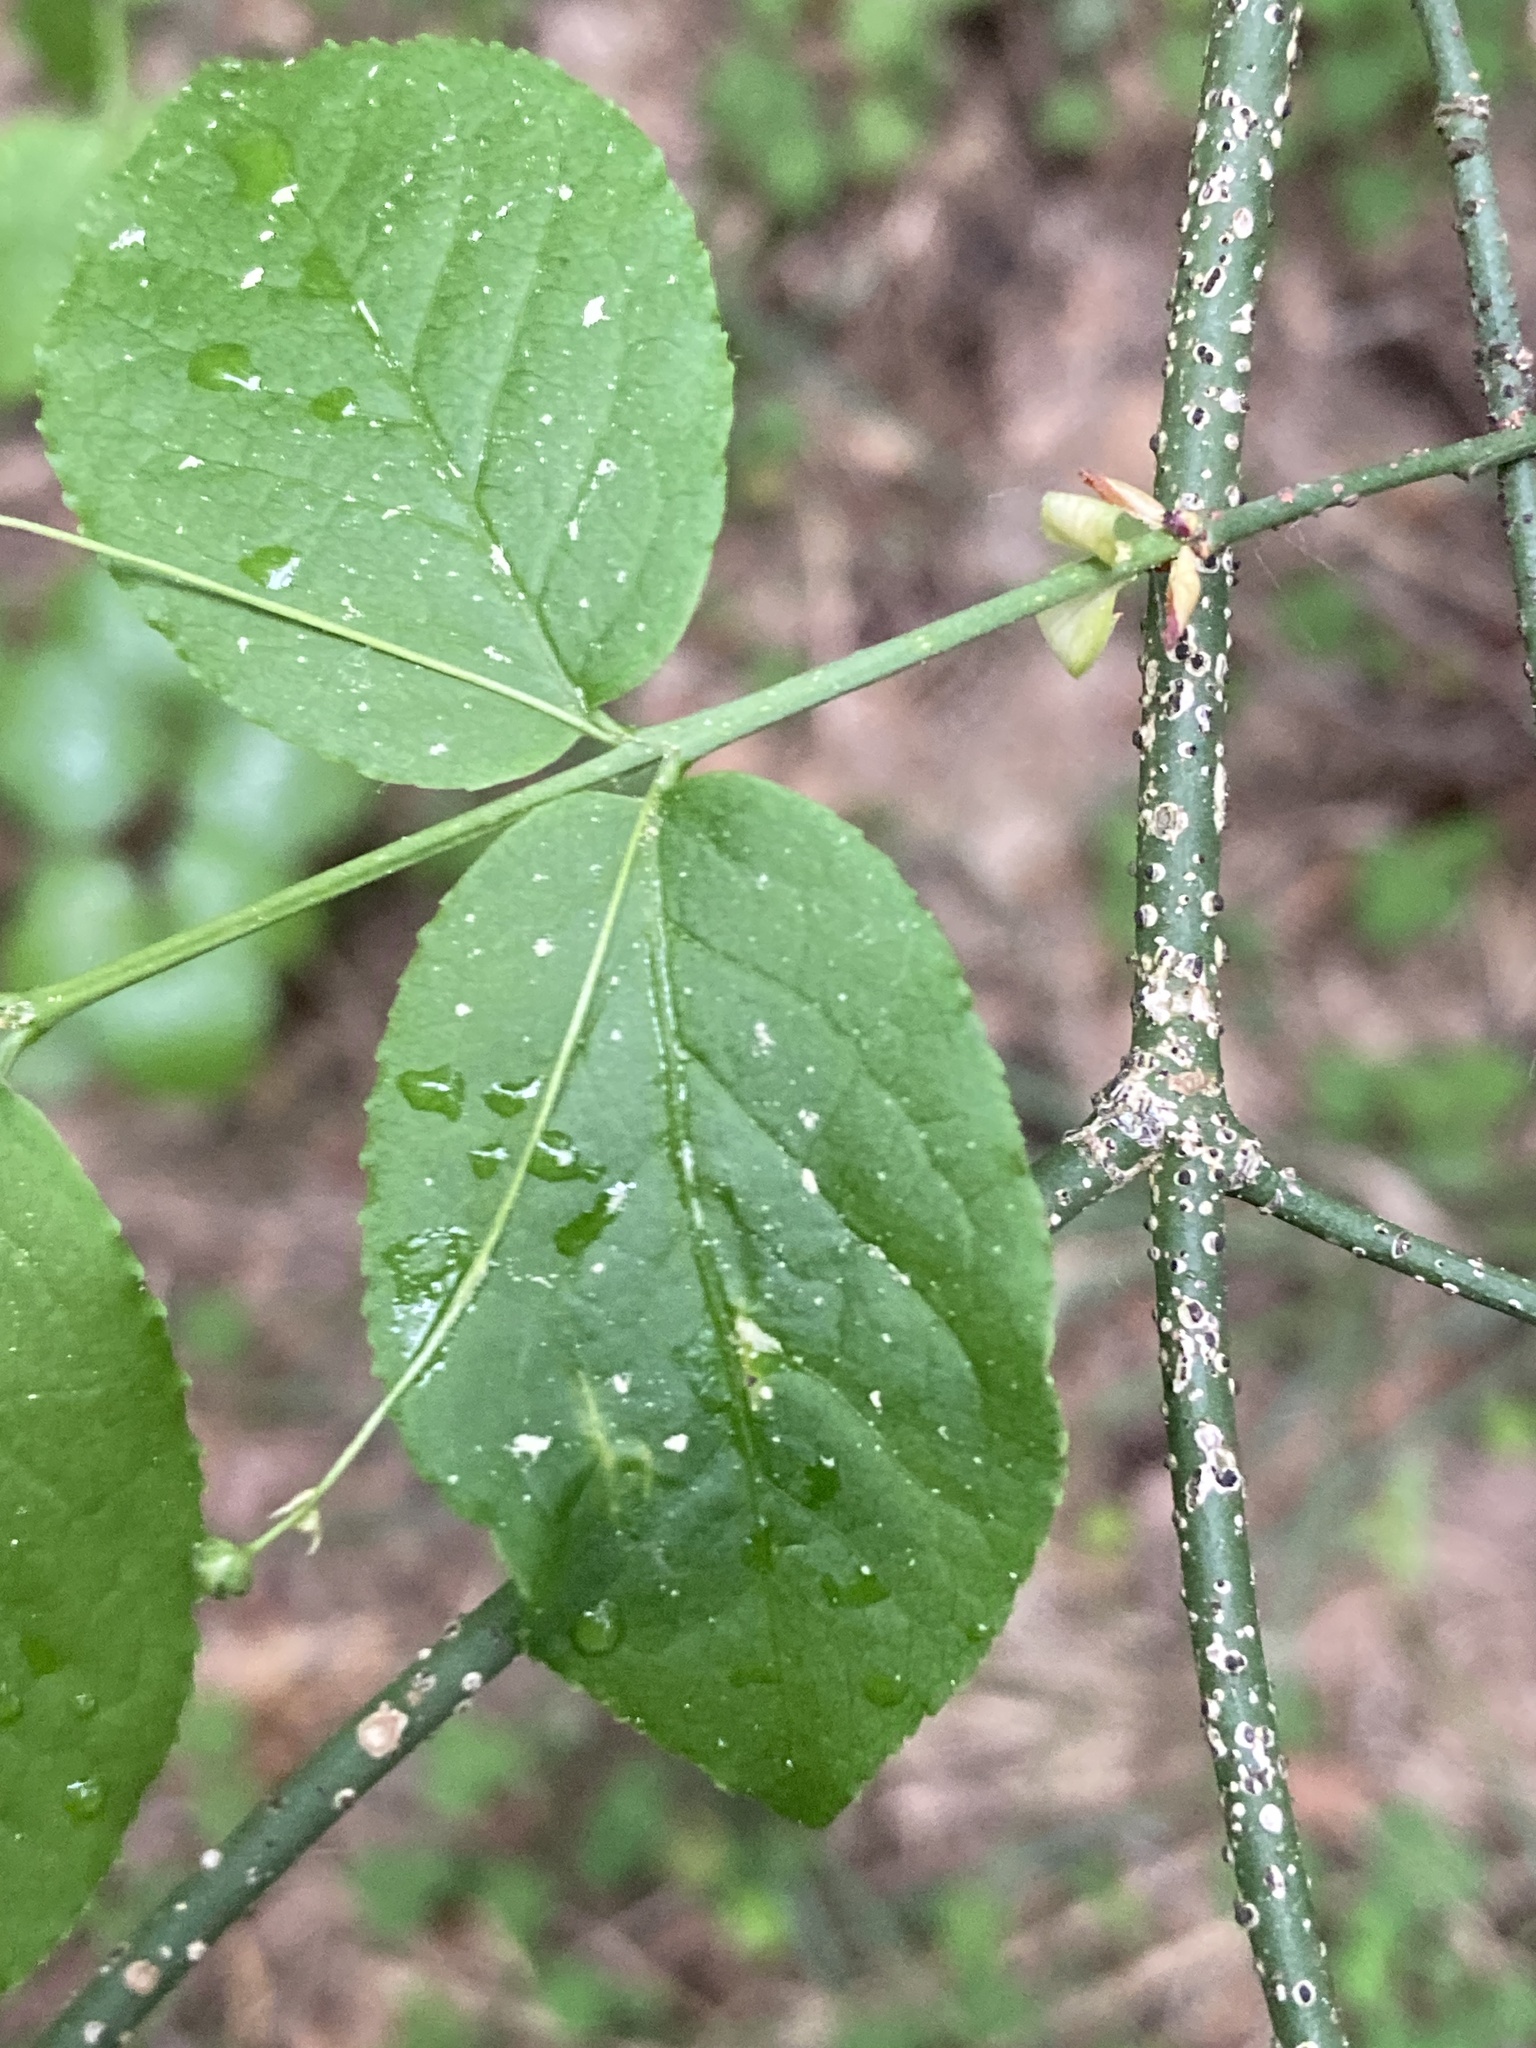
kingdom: Plantae
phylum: Tracheophyta
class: Magnoliopsida
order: Celastrales
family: Celastraceae
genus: Euonymus
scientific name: Euonymus verrucosus
